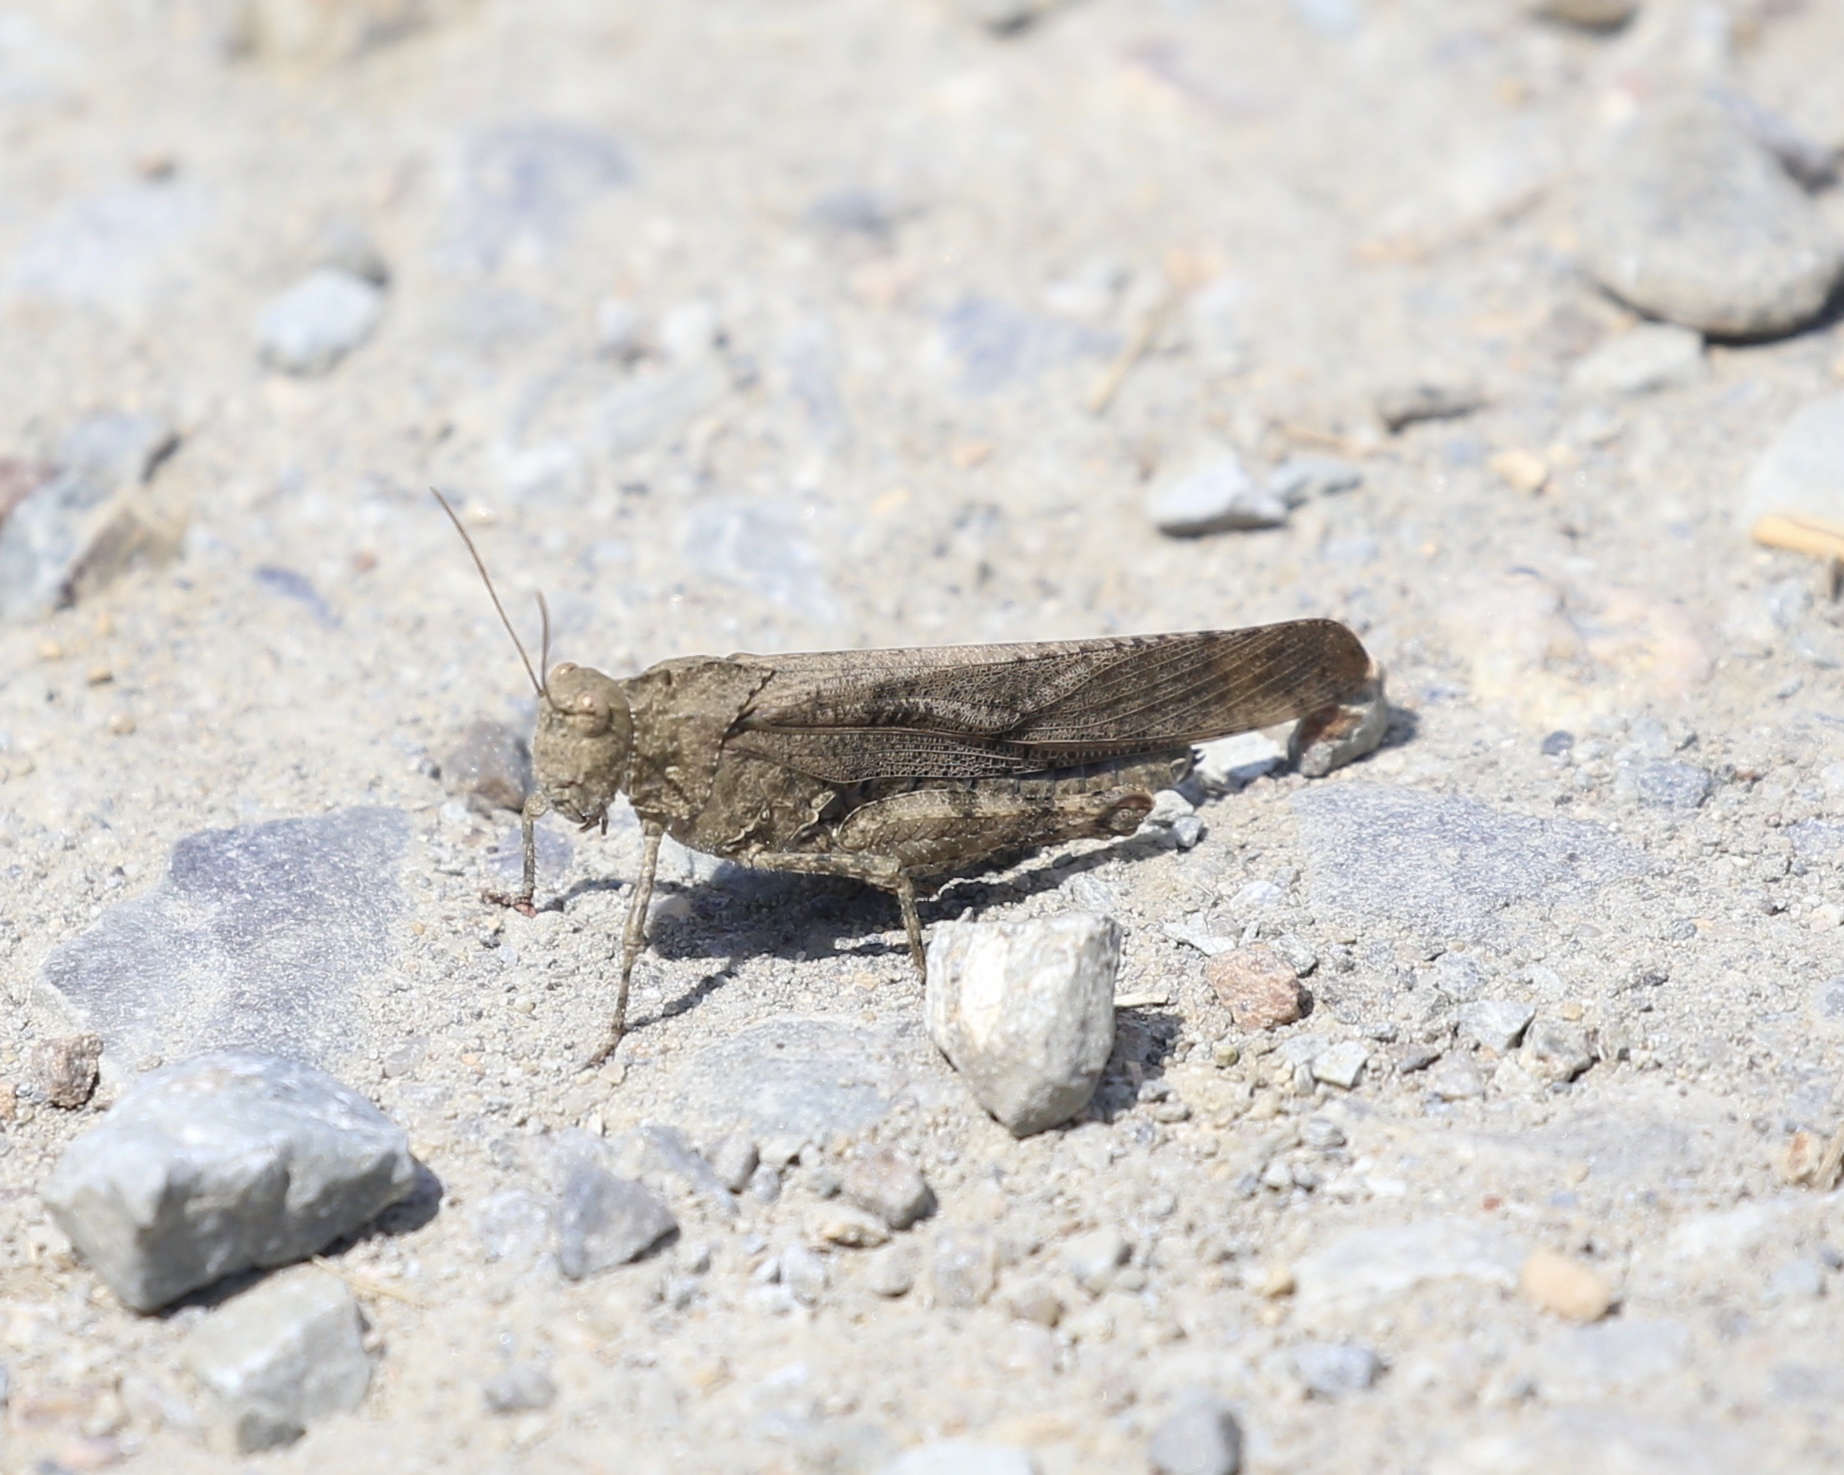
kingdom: Animalia
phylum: Arthropoda
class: Insecta
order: Orthoptera
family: Acrididae
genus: Dissosteira
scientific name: Dissosteira carolina
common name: Carolina grasshopper
